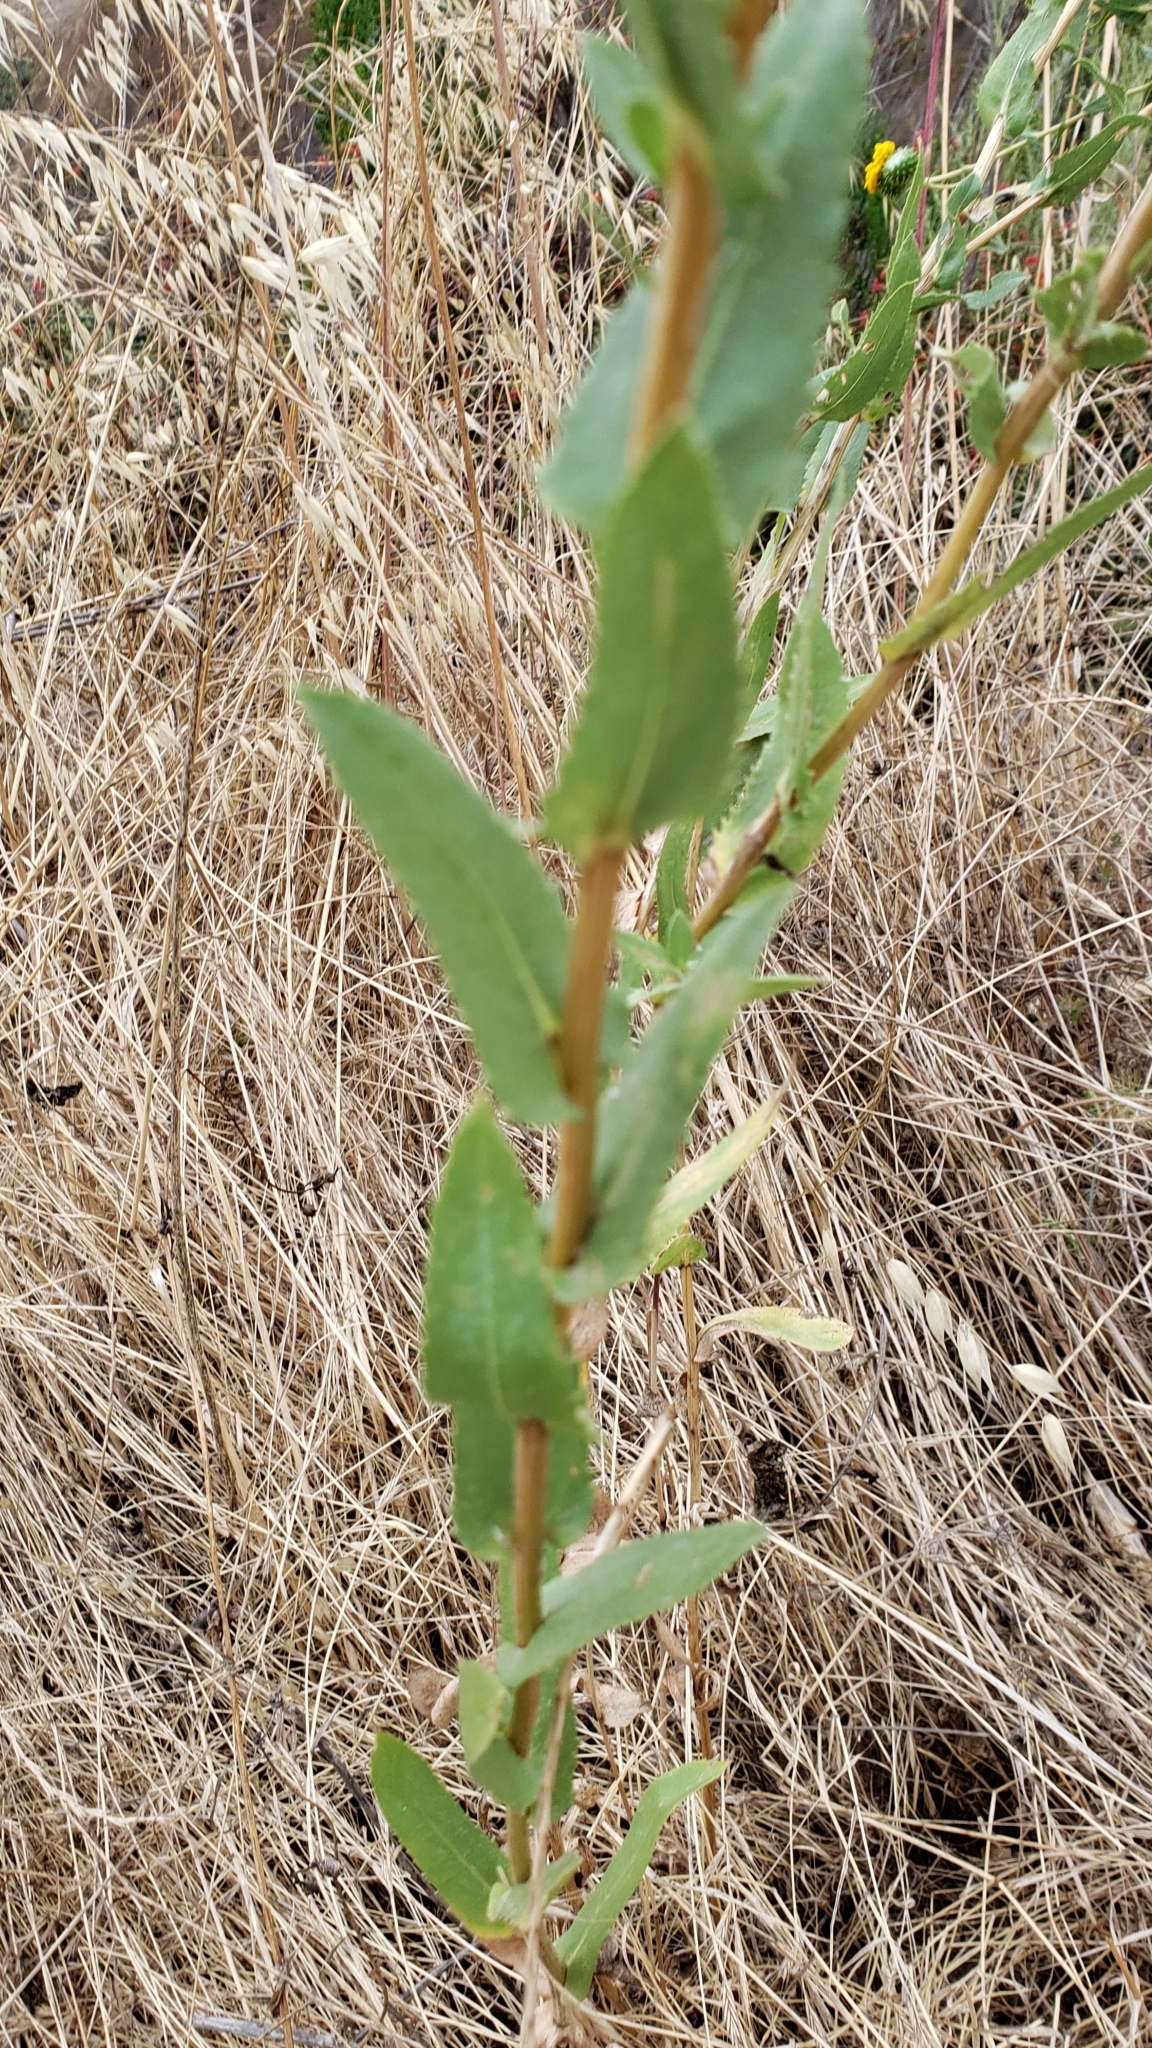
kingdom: Plantae
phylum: Tracheophyta
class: Magnoliopsida
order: Asterales
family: Asteraceae
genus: Grindelia
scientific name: Grindelia hirsutula
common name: Hairy gumweed
